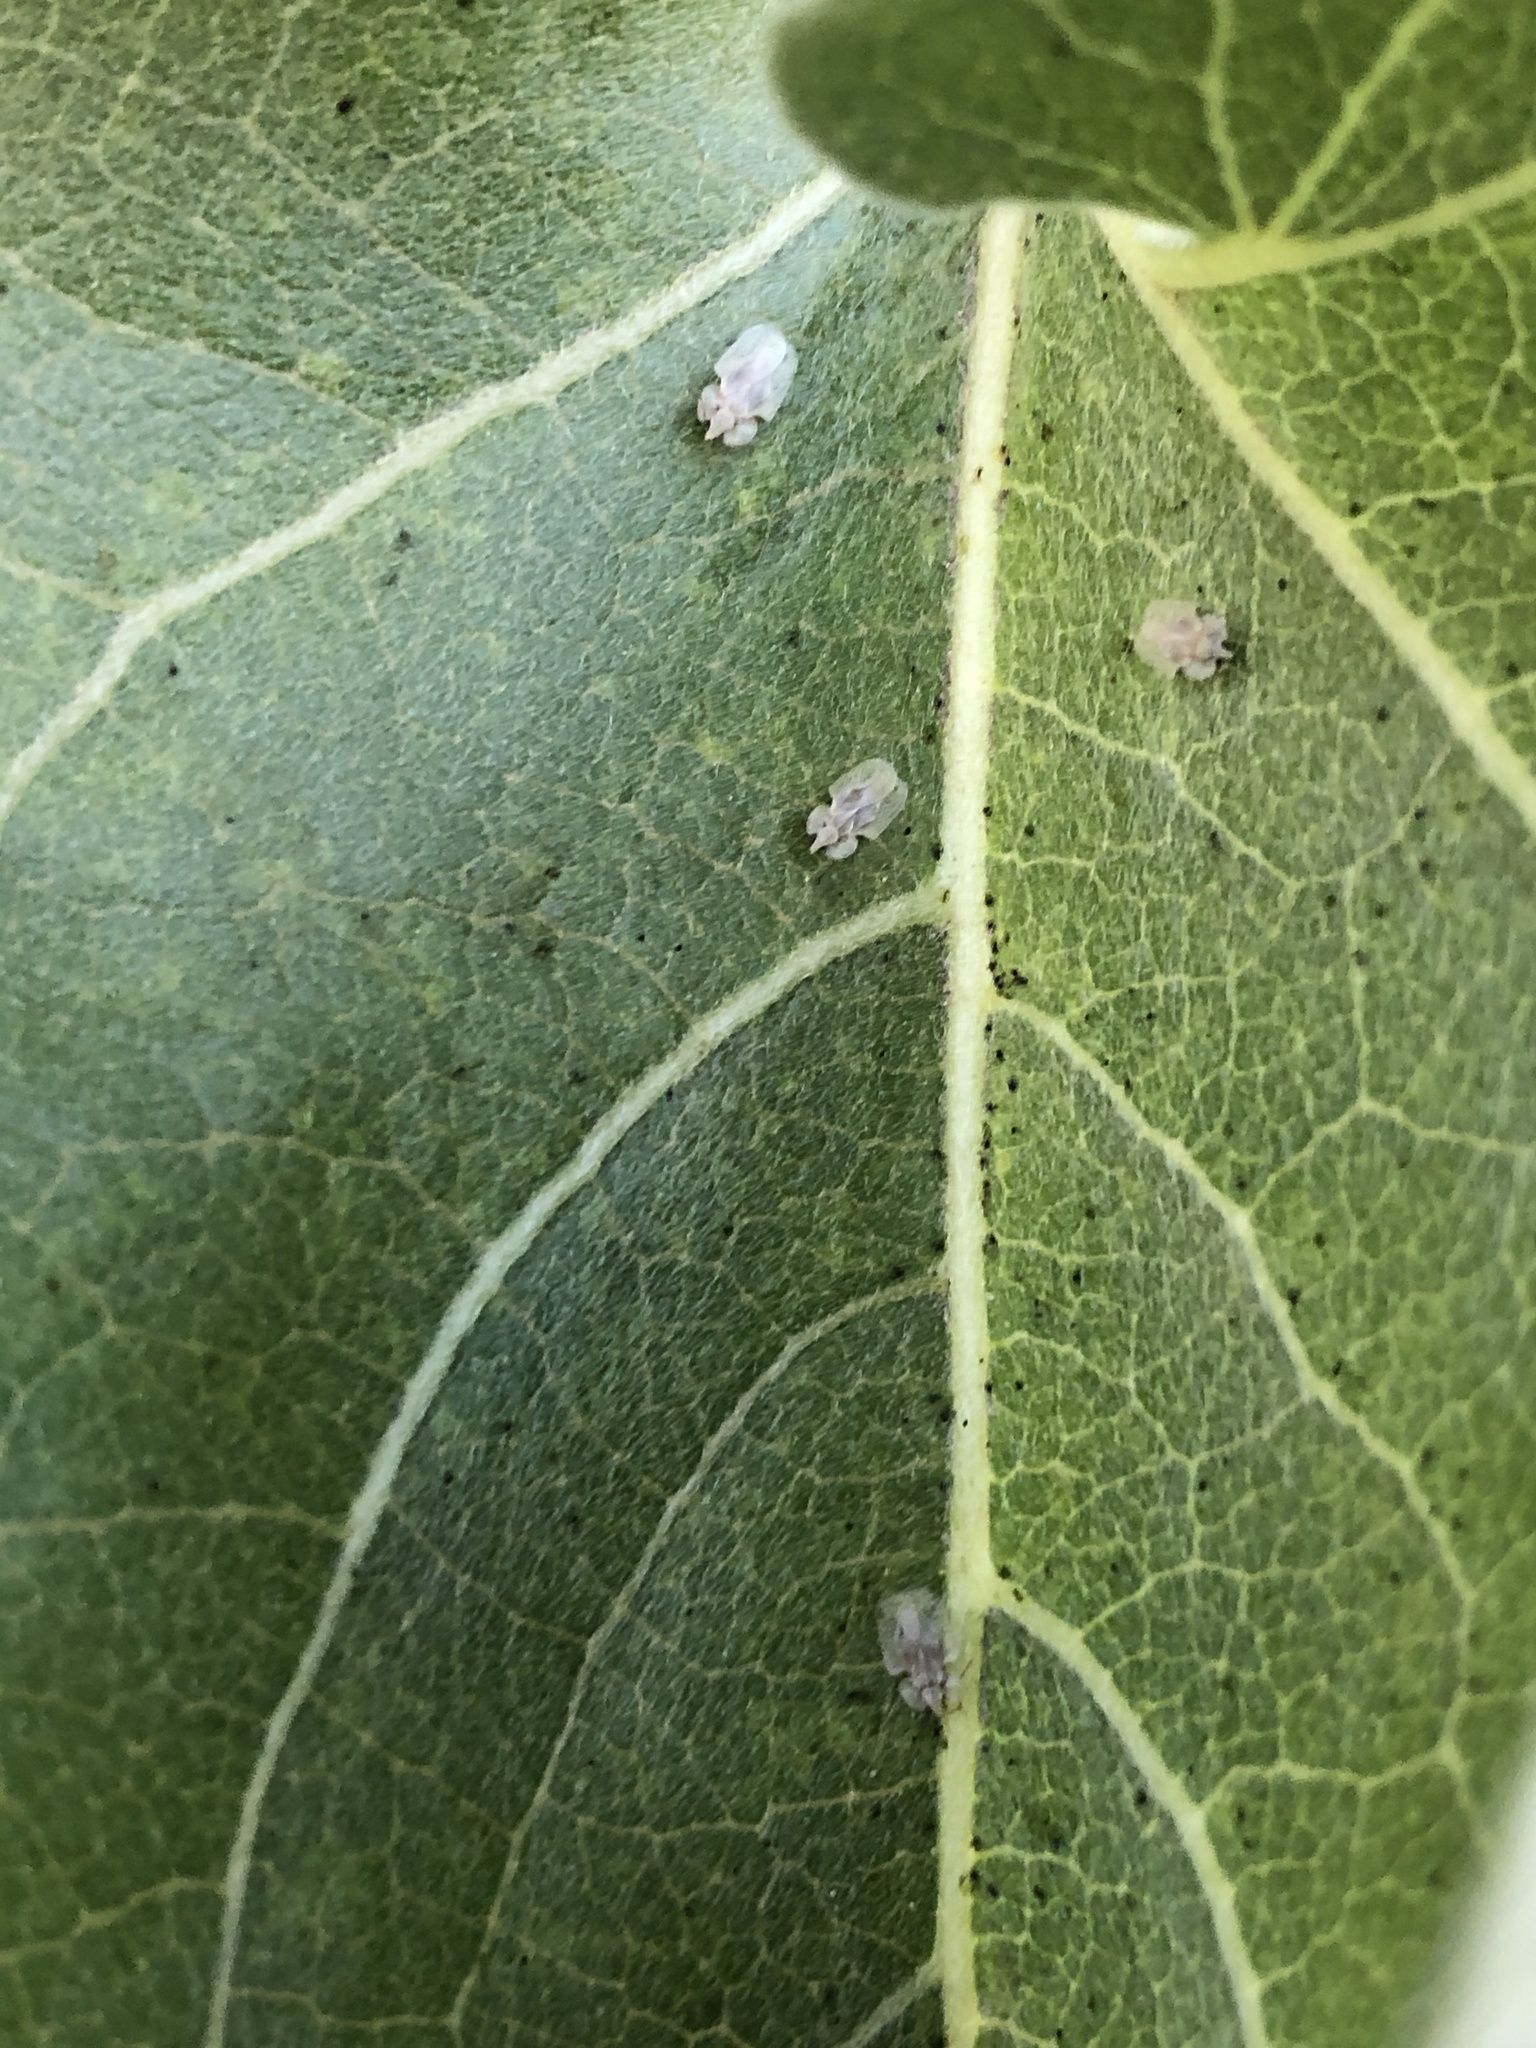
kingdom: Animalia
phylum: Arthropoda
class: Insecta
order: Hemiptera
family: Tingidae
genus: Corythucha
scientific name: Corythucha immaculata
